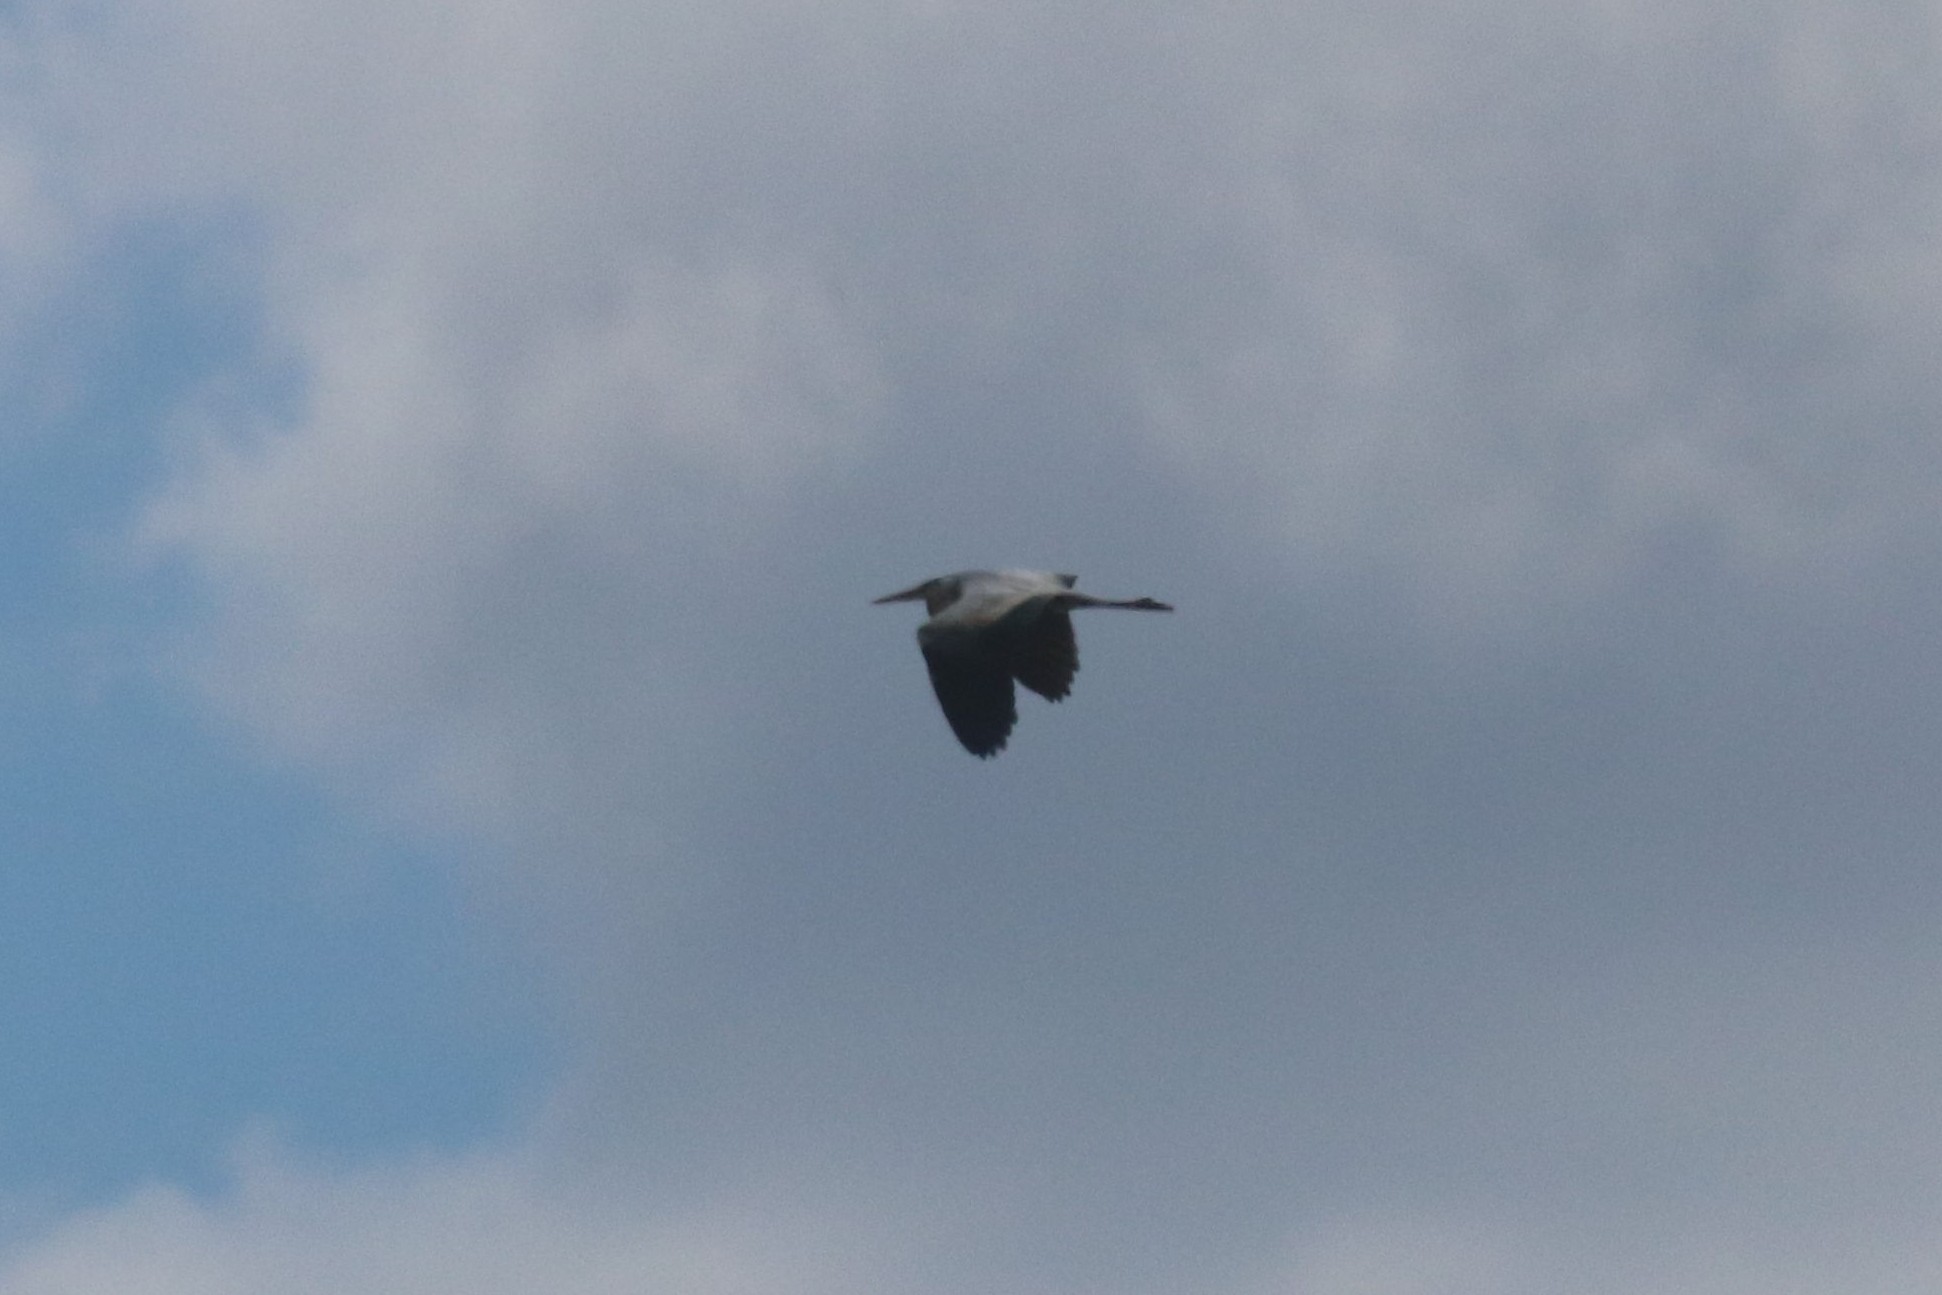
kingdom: Animalia
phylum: Chordata
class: Aves
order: Pelecaniformes
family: Ardeidae
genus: Ardea
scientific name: Ardea cinerea
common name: Grey heron
